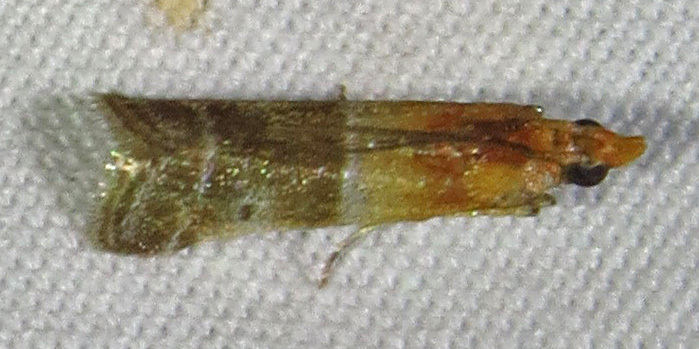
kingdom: Animalia
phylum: Arthropoda
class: Insecta
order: Lepidoptera
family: Pyralidae
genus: Moodna
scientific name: Moodna pallidostrinella
